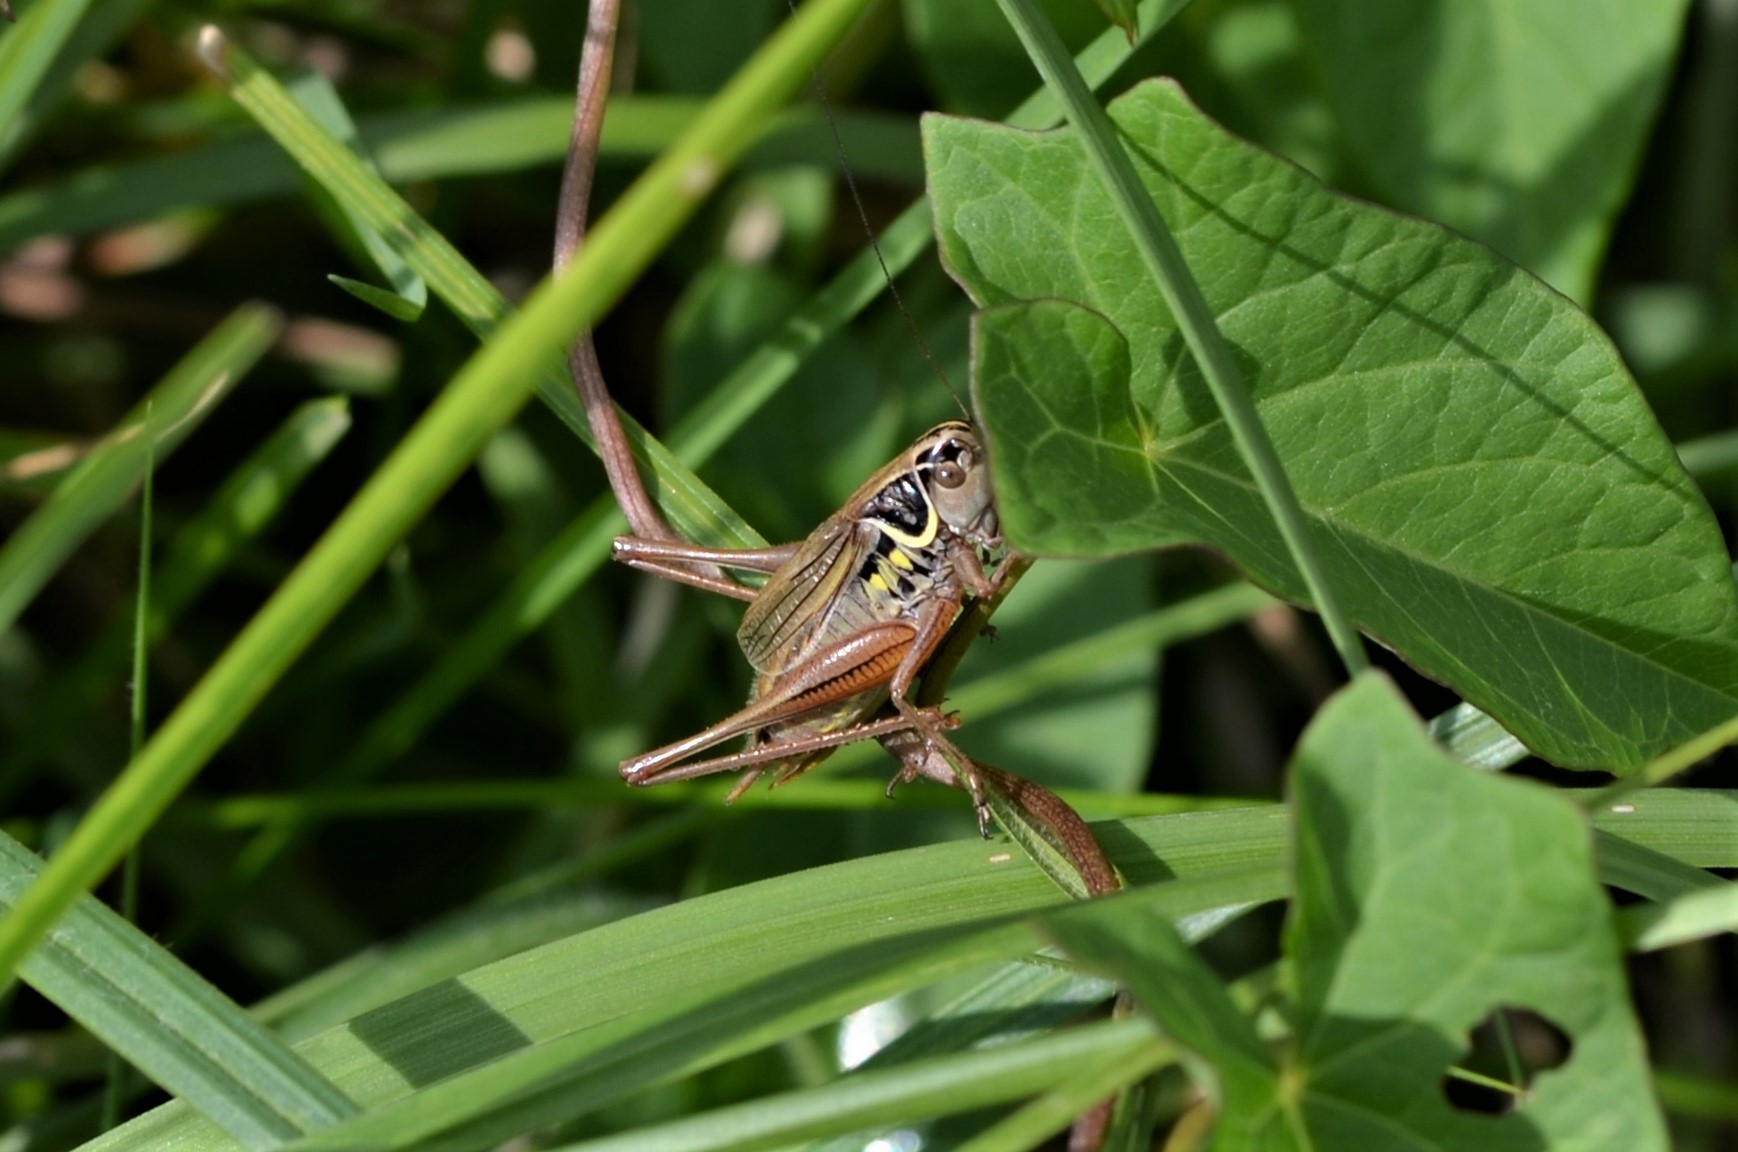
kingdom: Animalia
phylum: Arthropoda
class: Insecta
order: Orthoptera
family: Tettigoniidae
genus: Roeseliana
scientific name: Roeseliana roeselii
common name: Roesel's bush cricket
